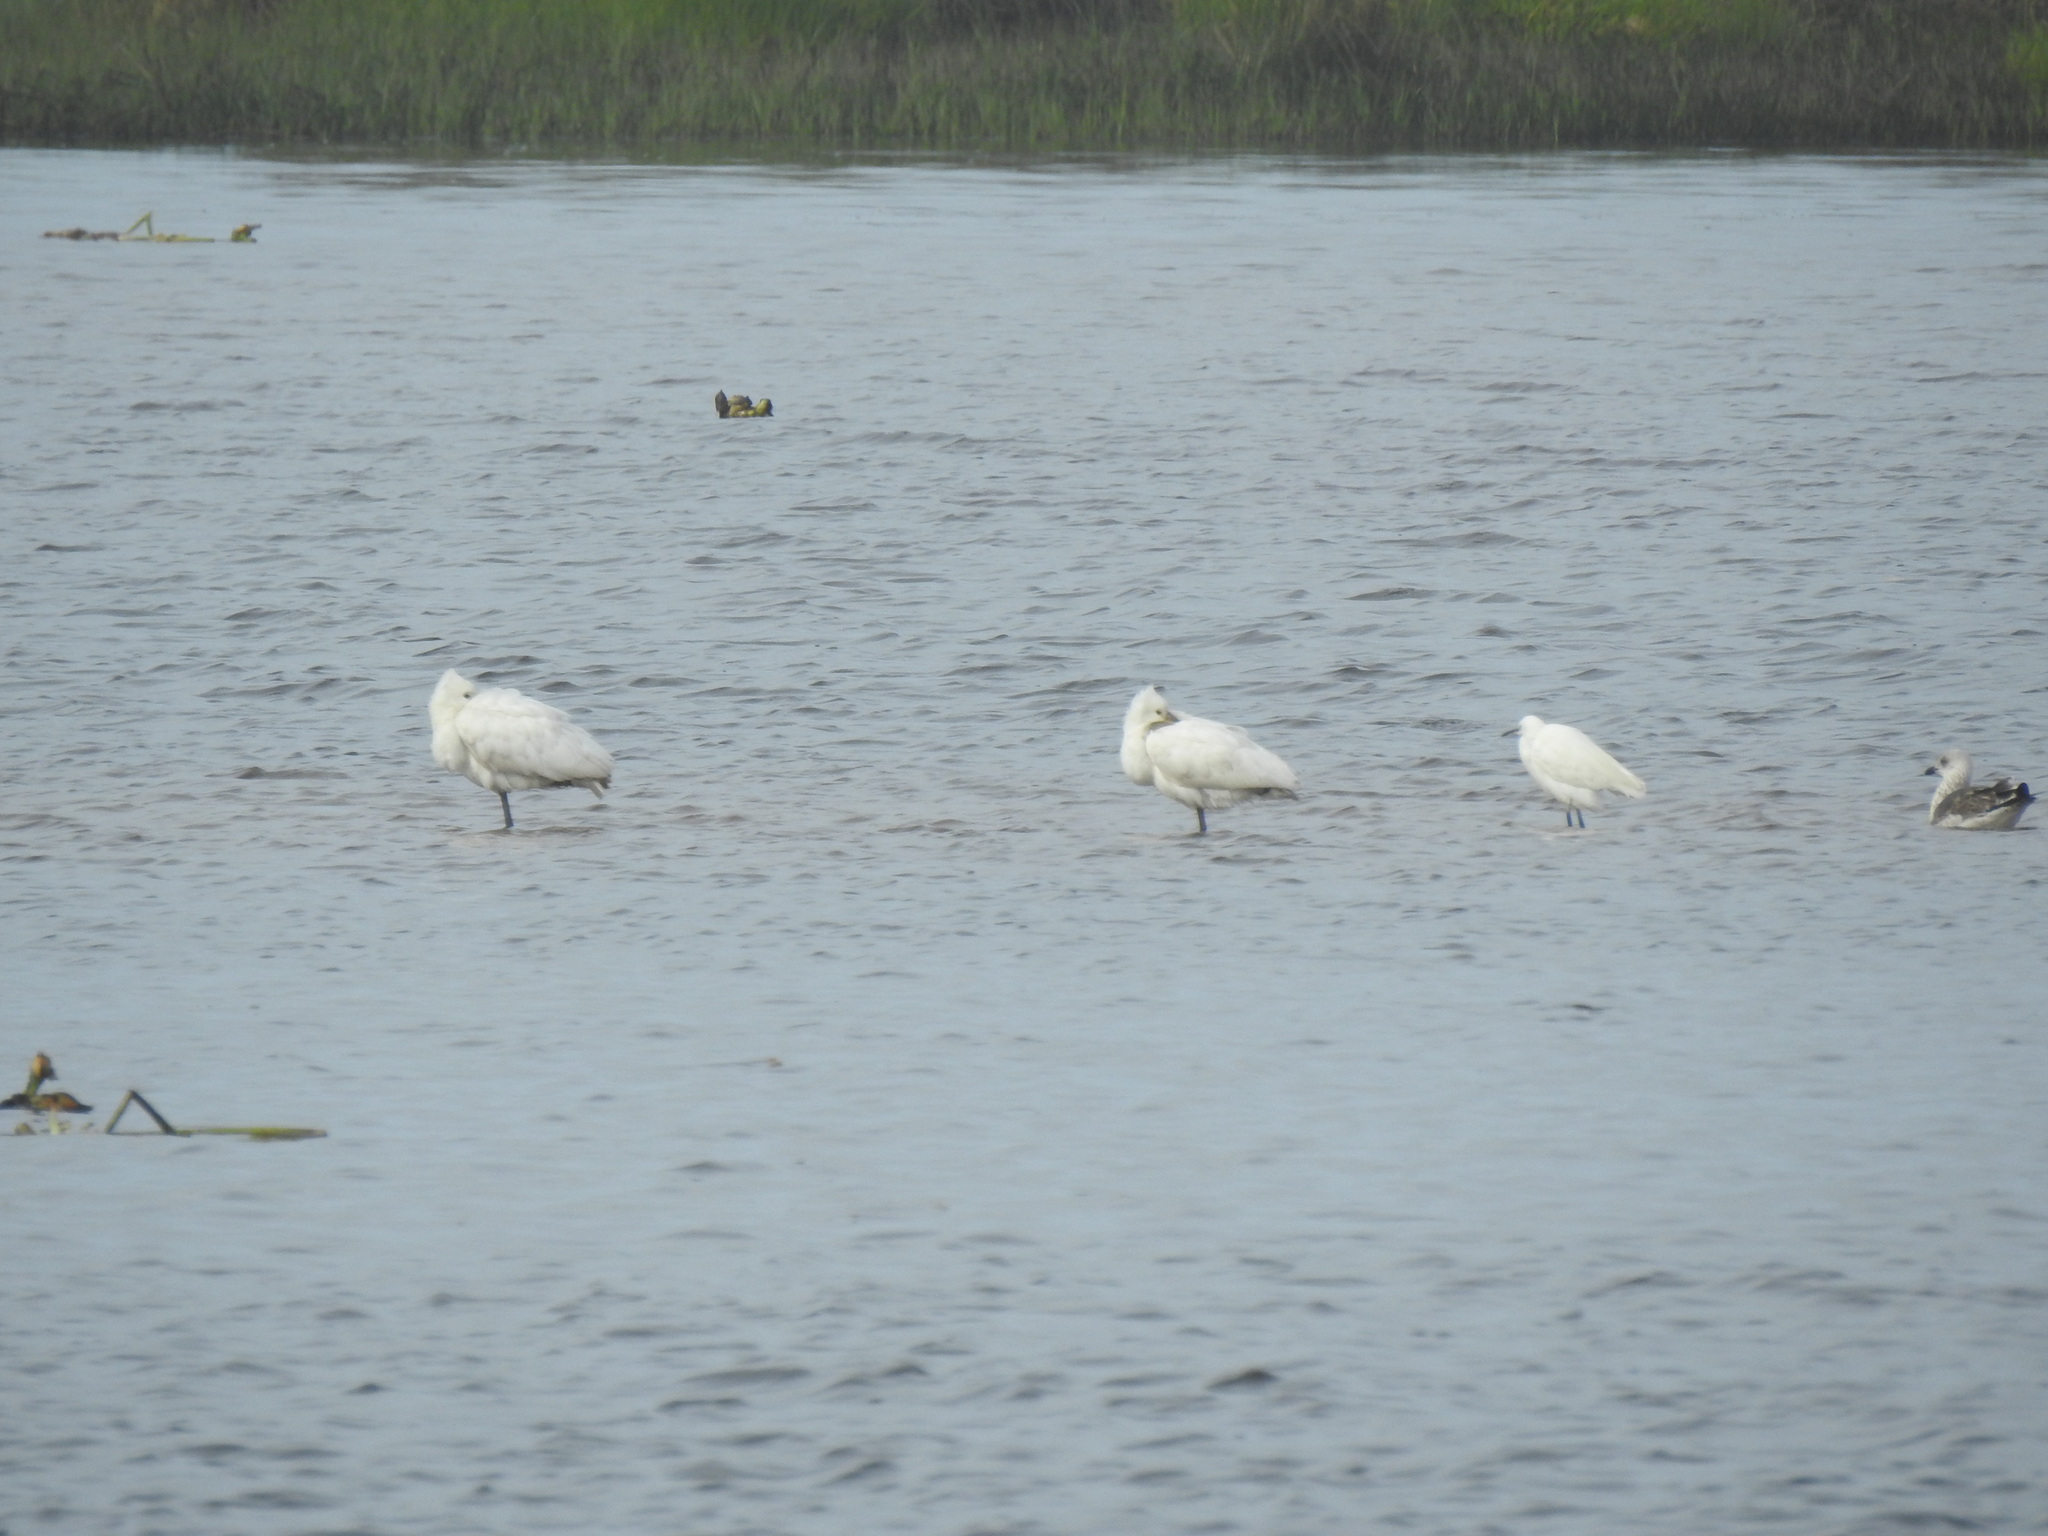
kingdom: Animalia
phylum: Chordata
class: Aves
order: Pelecaniformes
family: Threskiornithidae
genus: Platalea
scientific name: Platalea leucorodia
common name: Eurasian spoonbill
